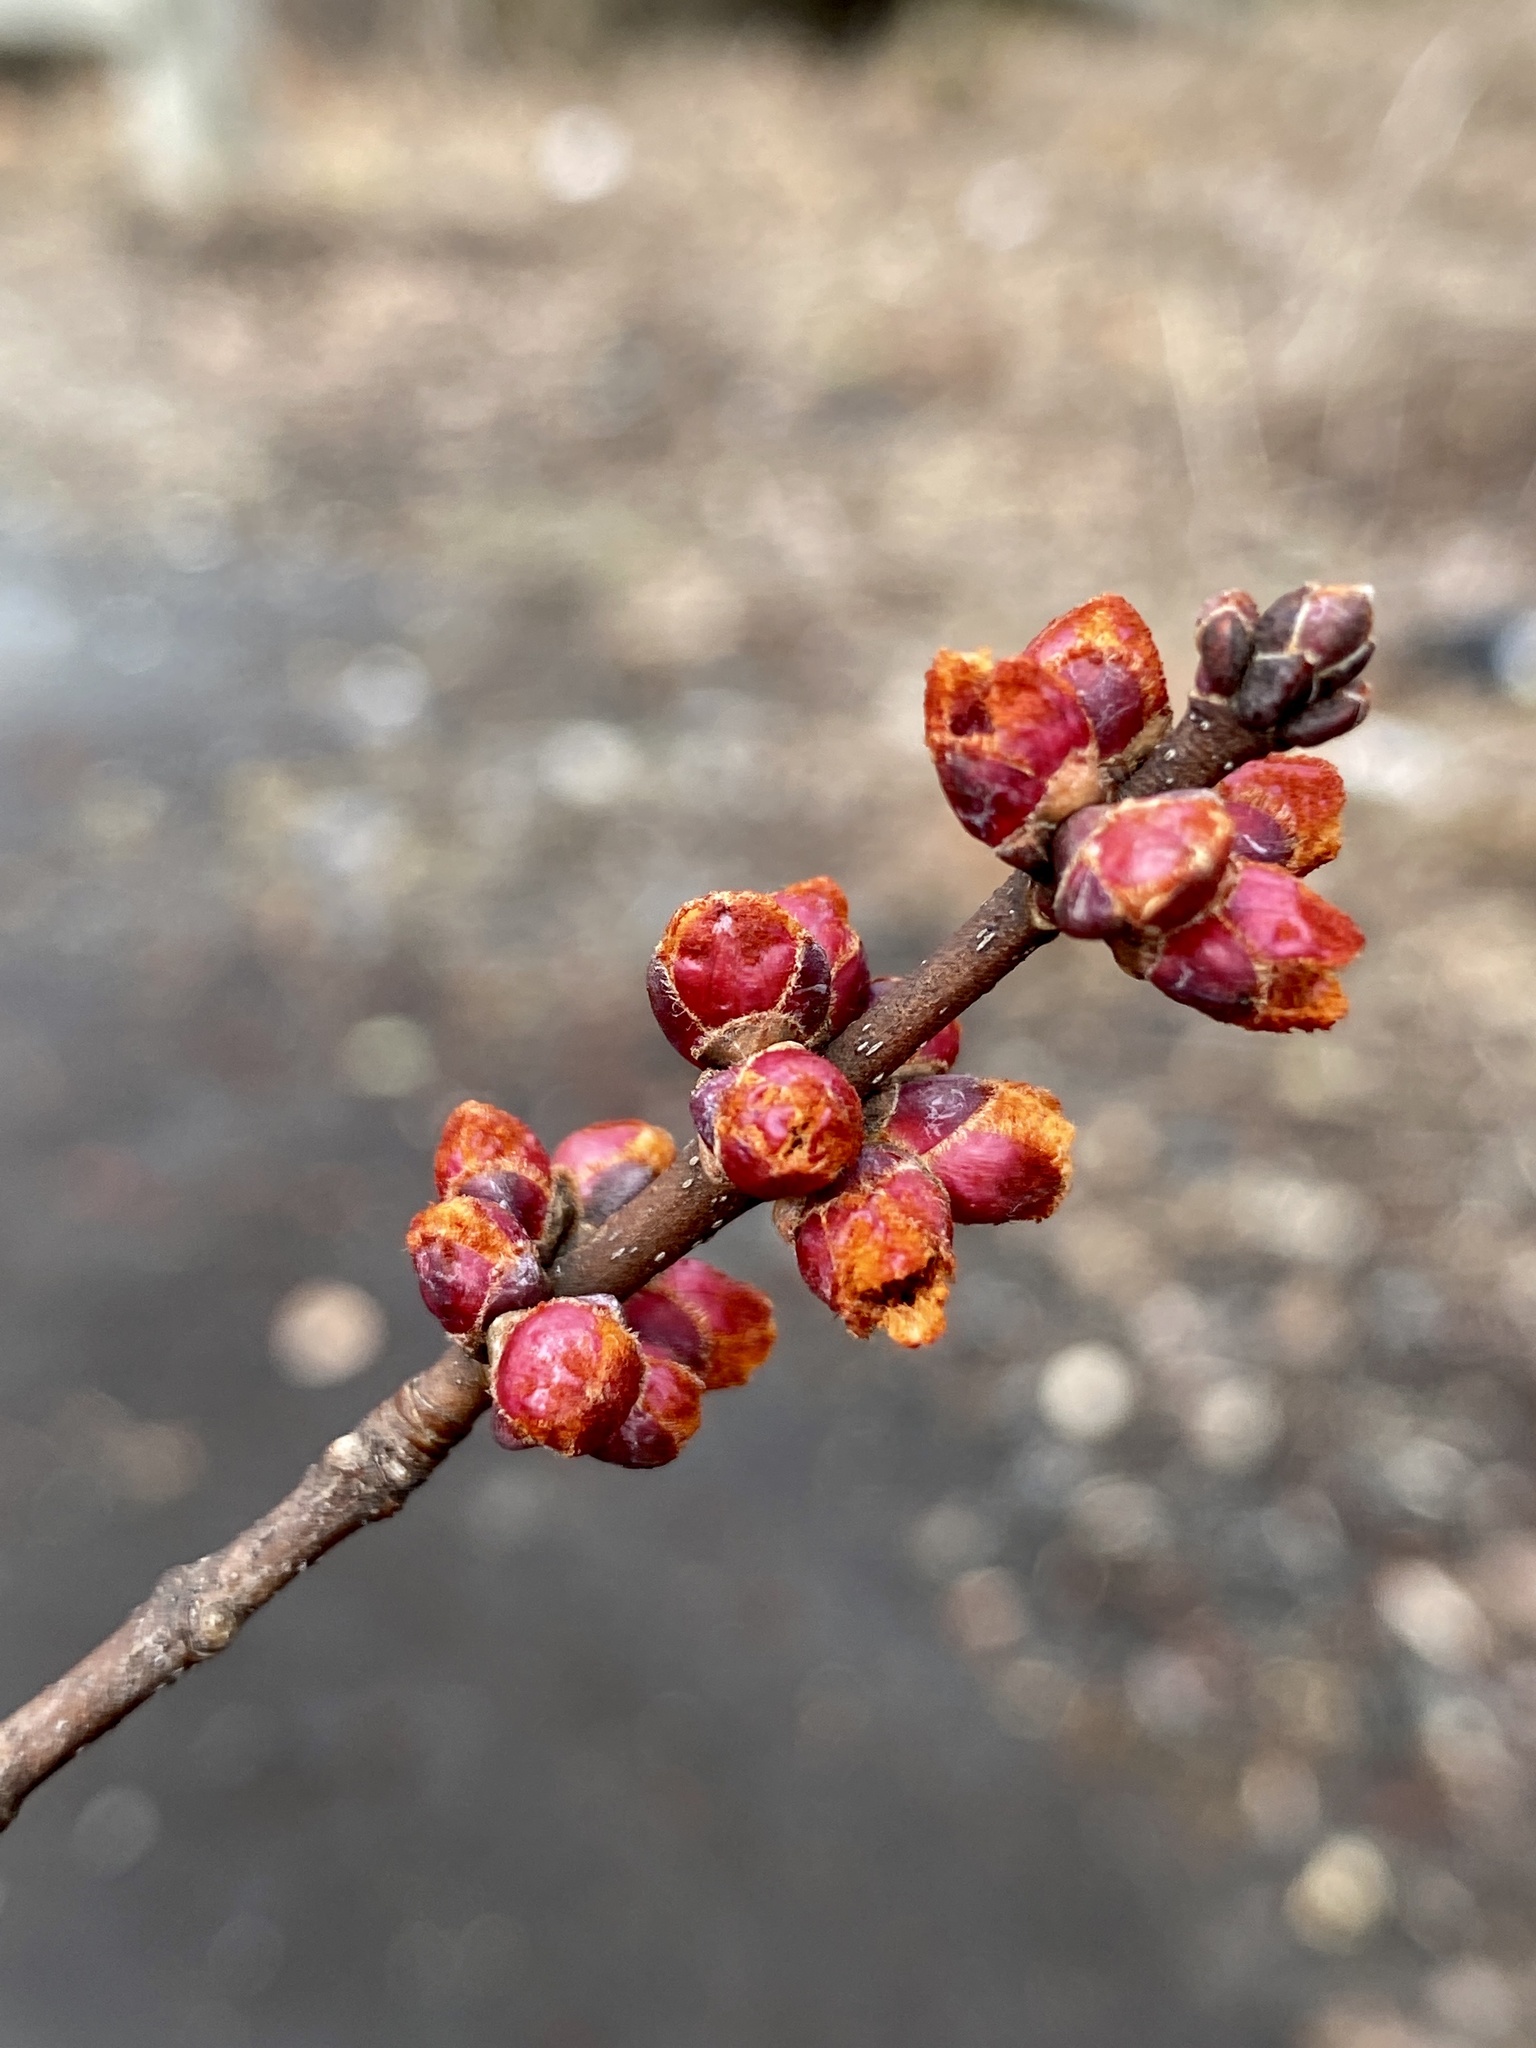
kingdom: Plantae
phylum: Tracheophyta
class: Magnoliopsida
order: Sapindales
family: Sapindaceae
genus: Acer
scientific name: Acer rubrum
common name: Red maple
